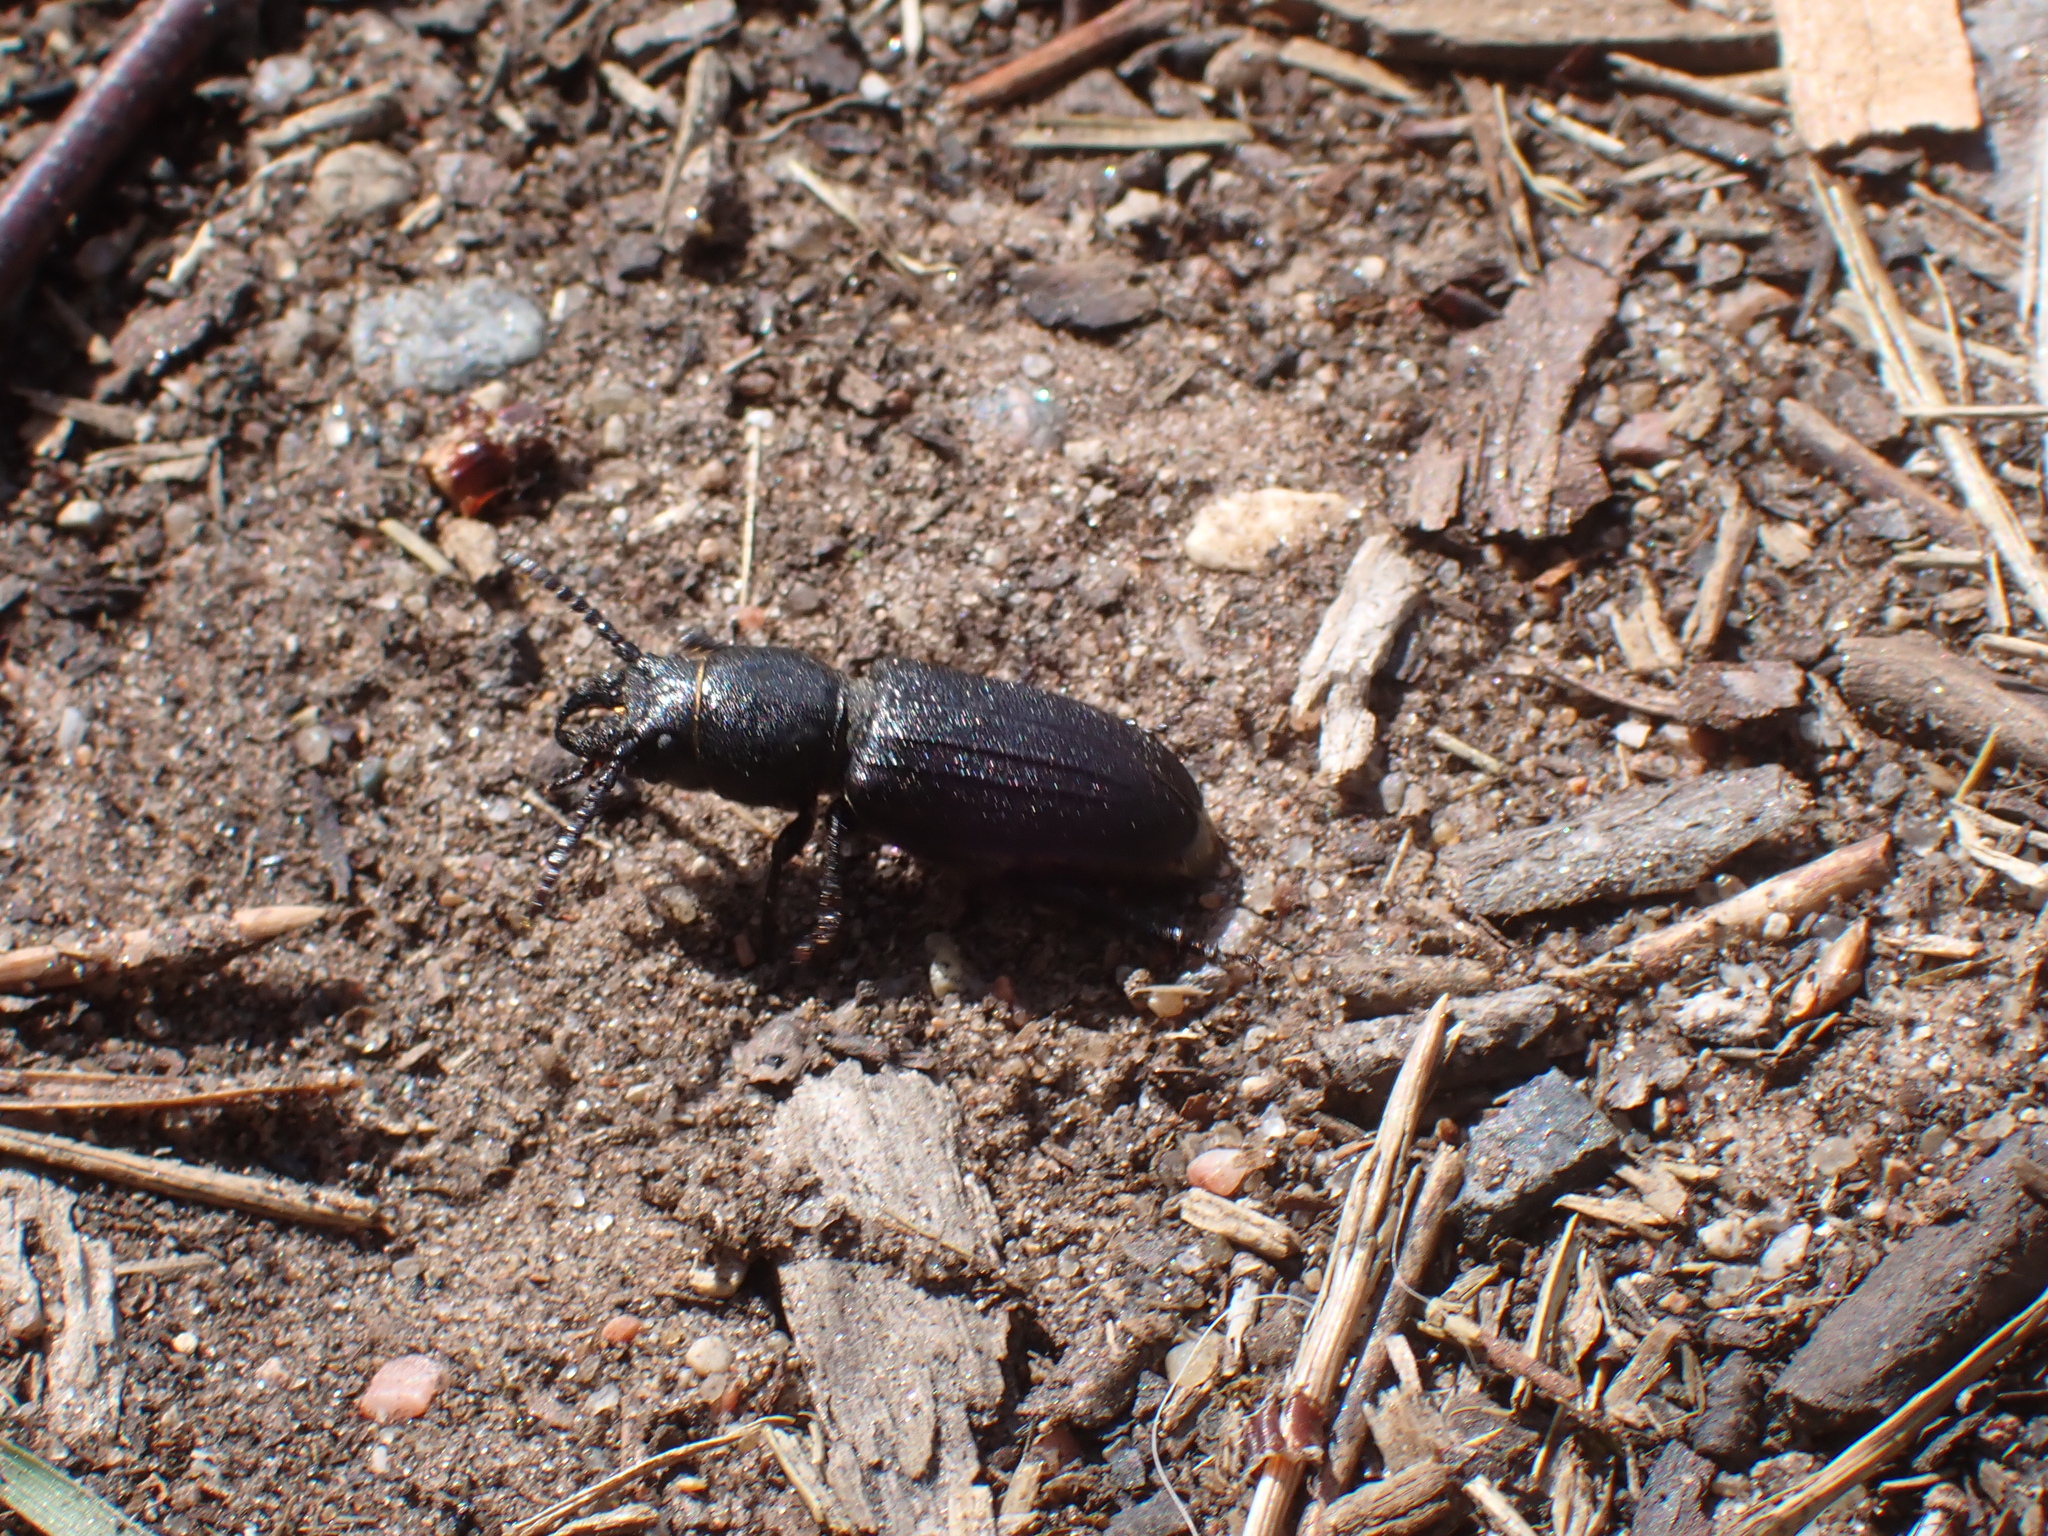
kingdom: Animalia
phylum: Arthropoda
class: Insecta
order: Coleoptera
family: Cerambycidae
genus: Spondylis
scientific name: Spondylis buprestoides
